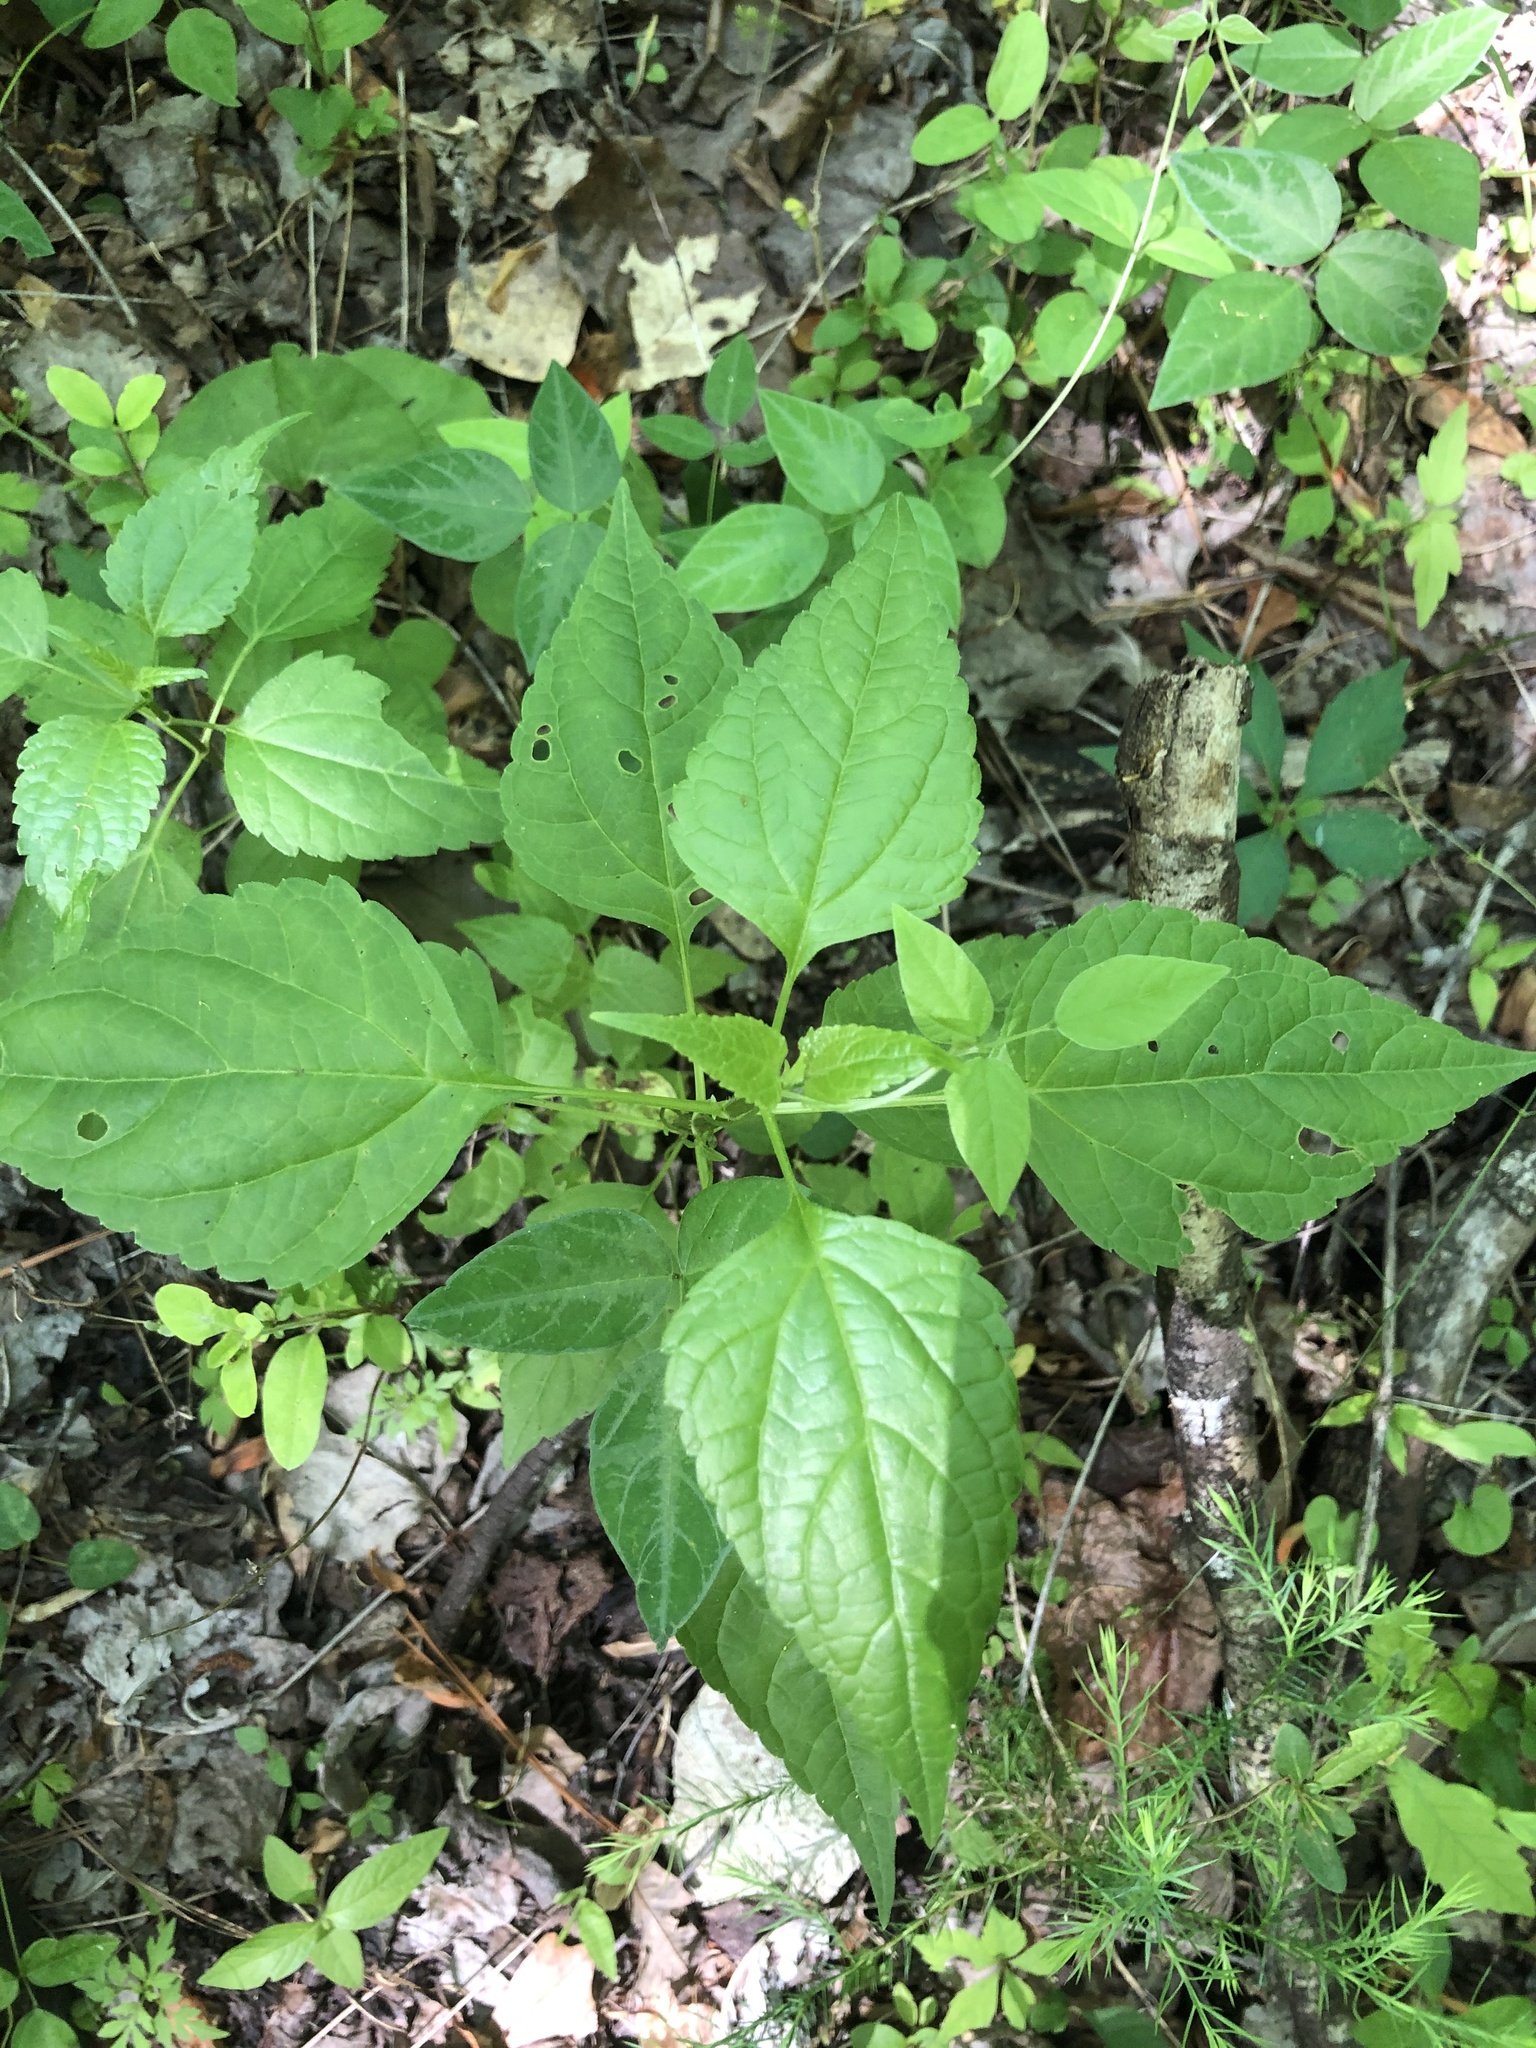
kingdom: Plantae
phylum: Tracheophyta
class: Magnoliopsida
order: Asterales
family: Asteraceae
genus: Ageratina
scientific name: Ageratina altissima
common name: White snakeroot
